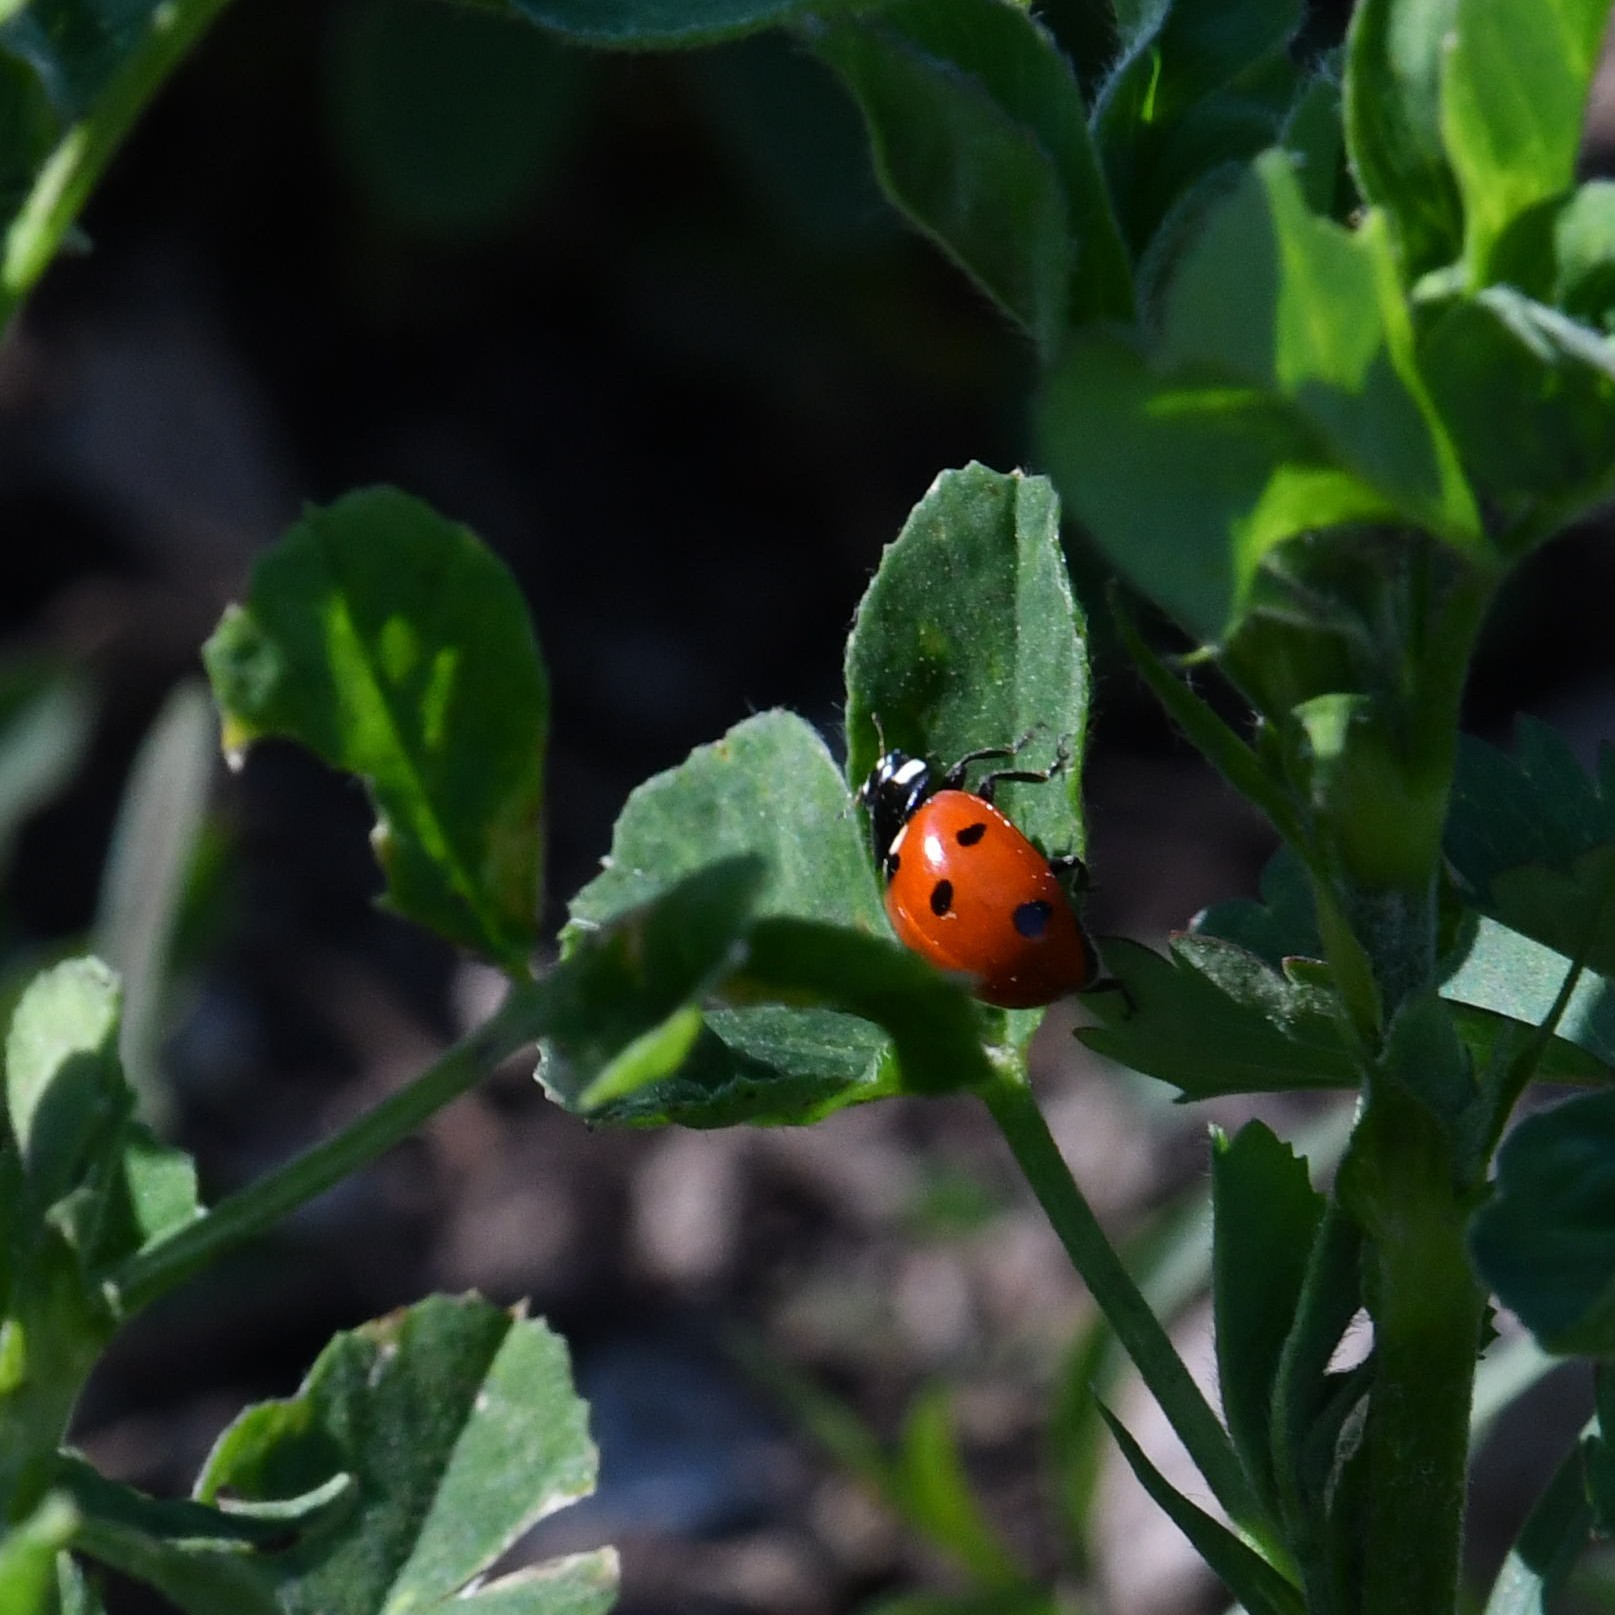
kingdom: Animalia
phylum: Arthropoda
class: Insecta
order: Coleoptera
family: Coccinellidae
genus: Coccinella
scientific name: Coccinella septempunctata
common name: Sevenspotted lady beetle
